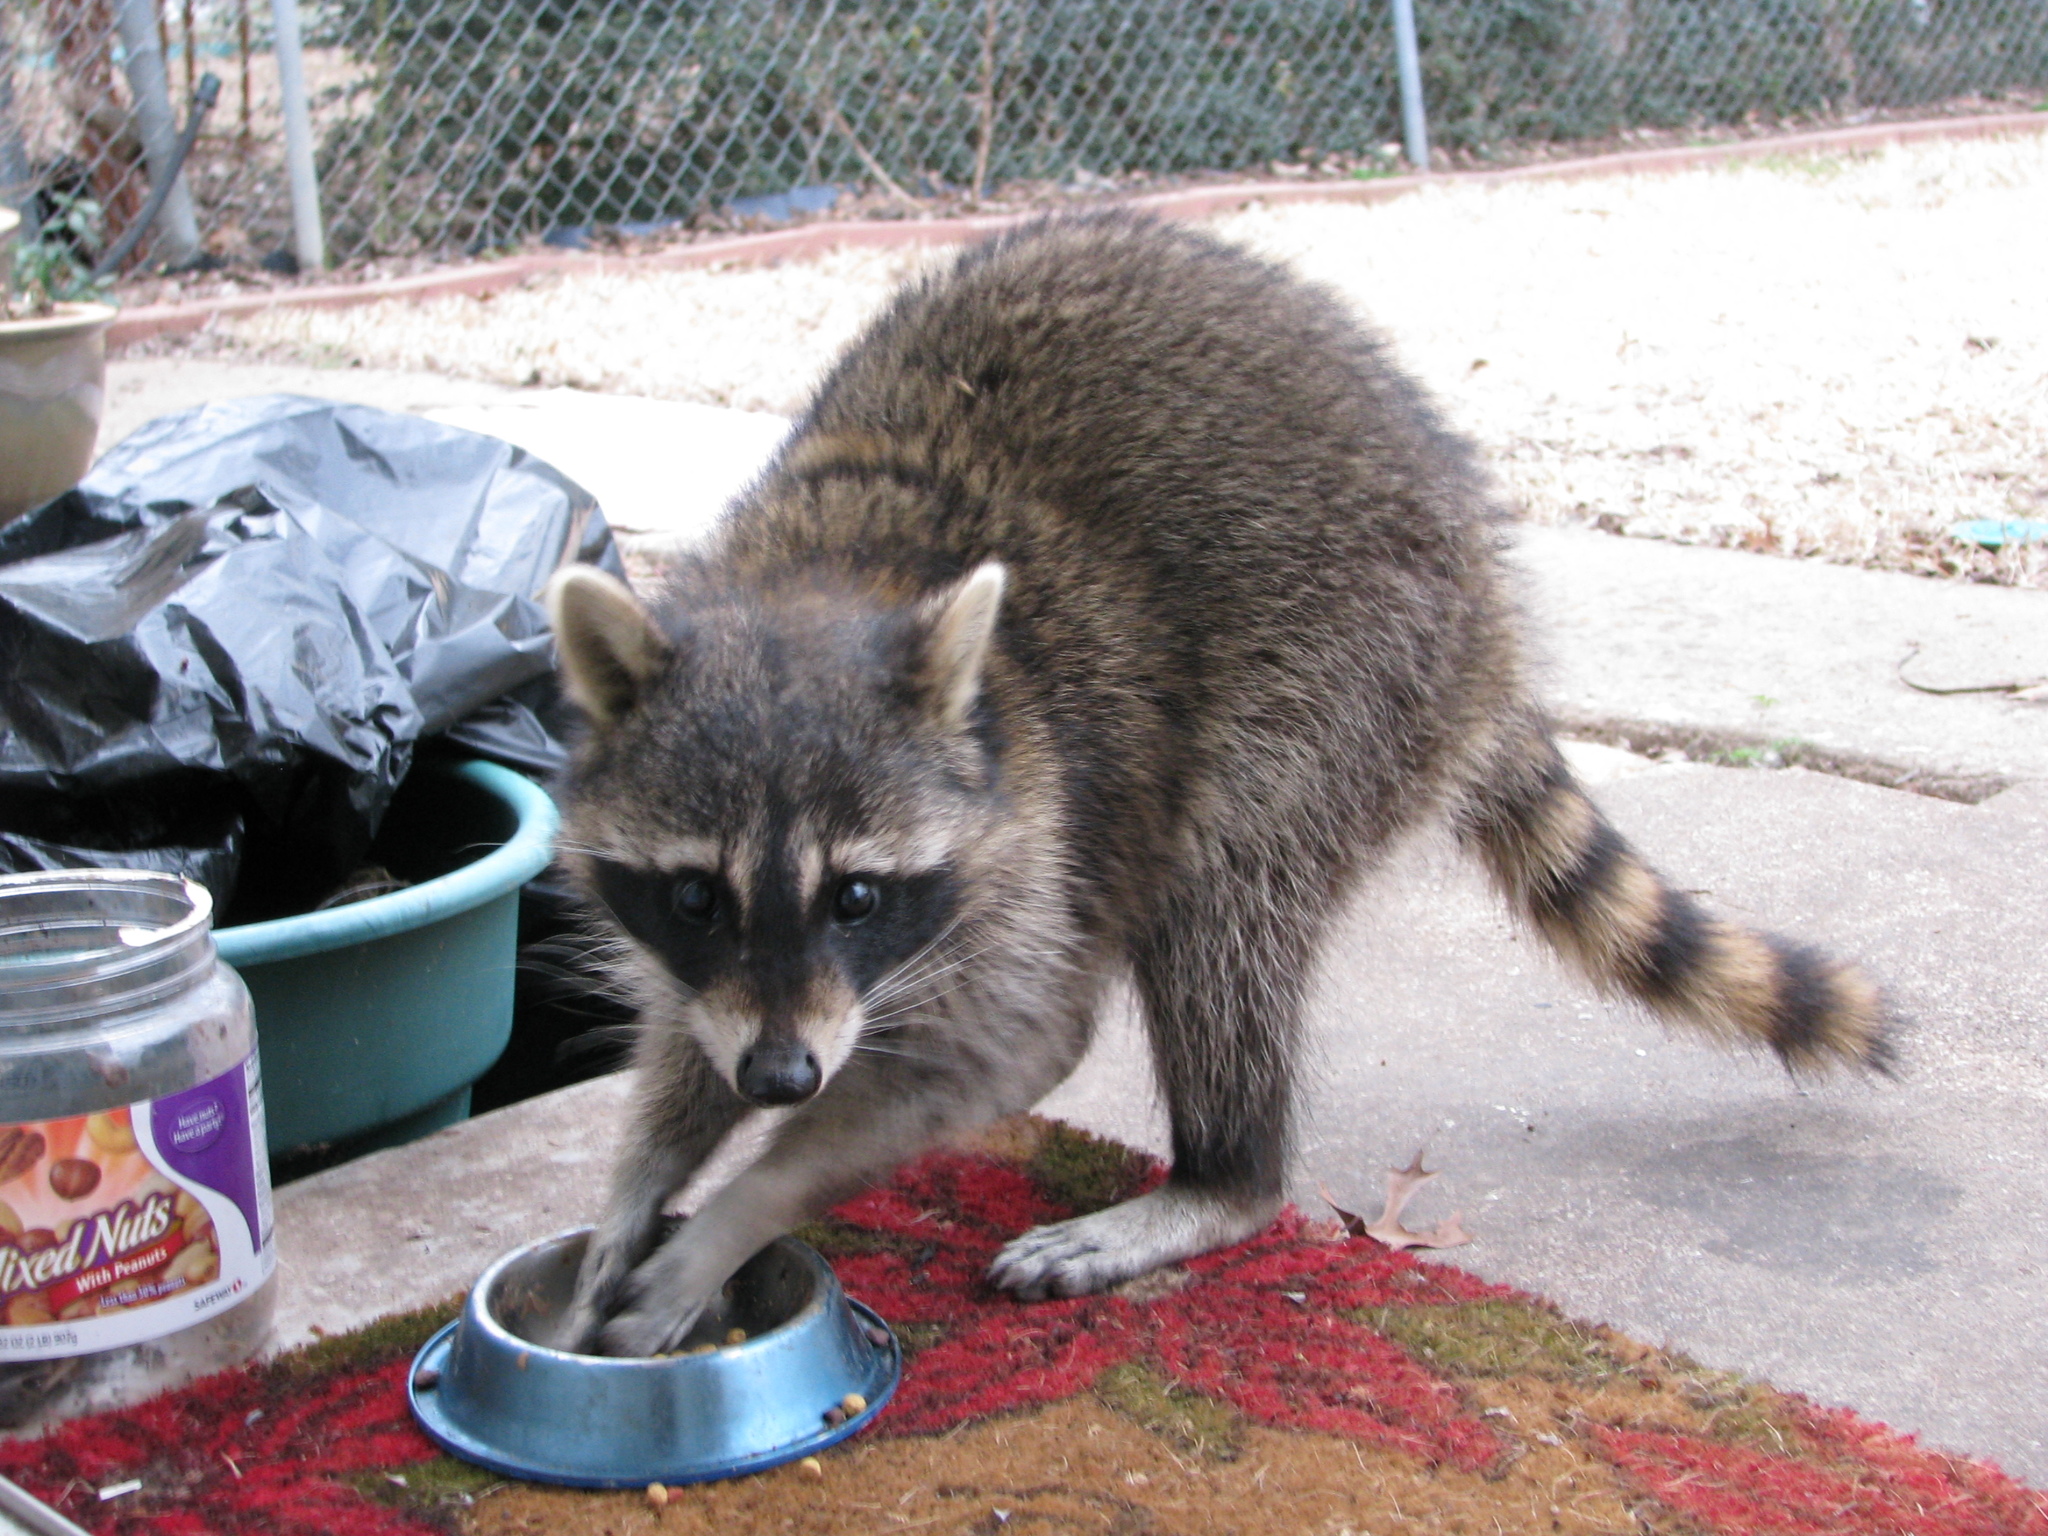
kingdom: Animalia
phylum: Chordata
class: Mammalia
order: Carnivora
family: Procyonidae
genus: Procyon
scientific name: Procyon lotor
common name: Raccoon
